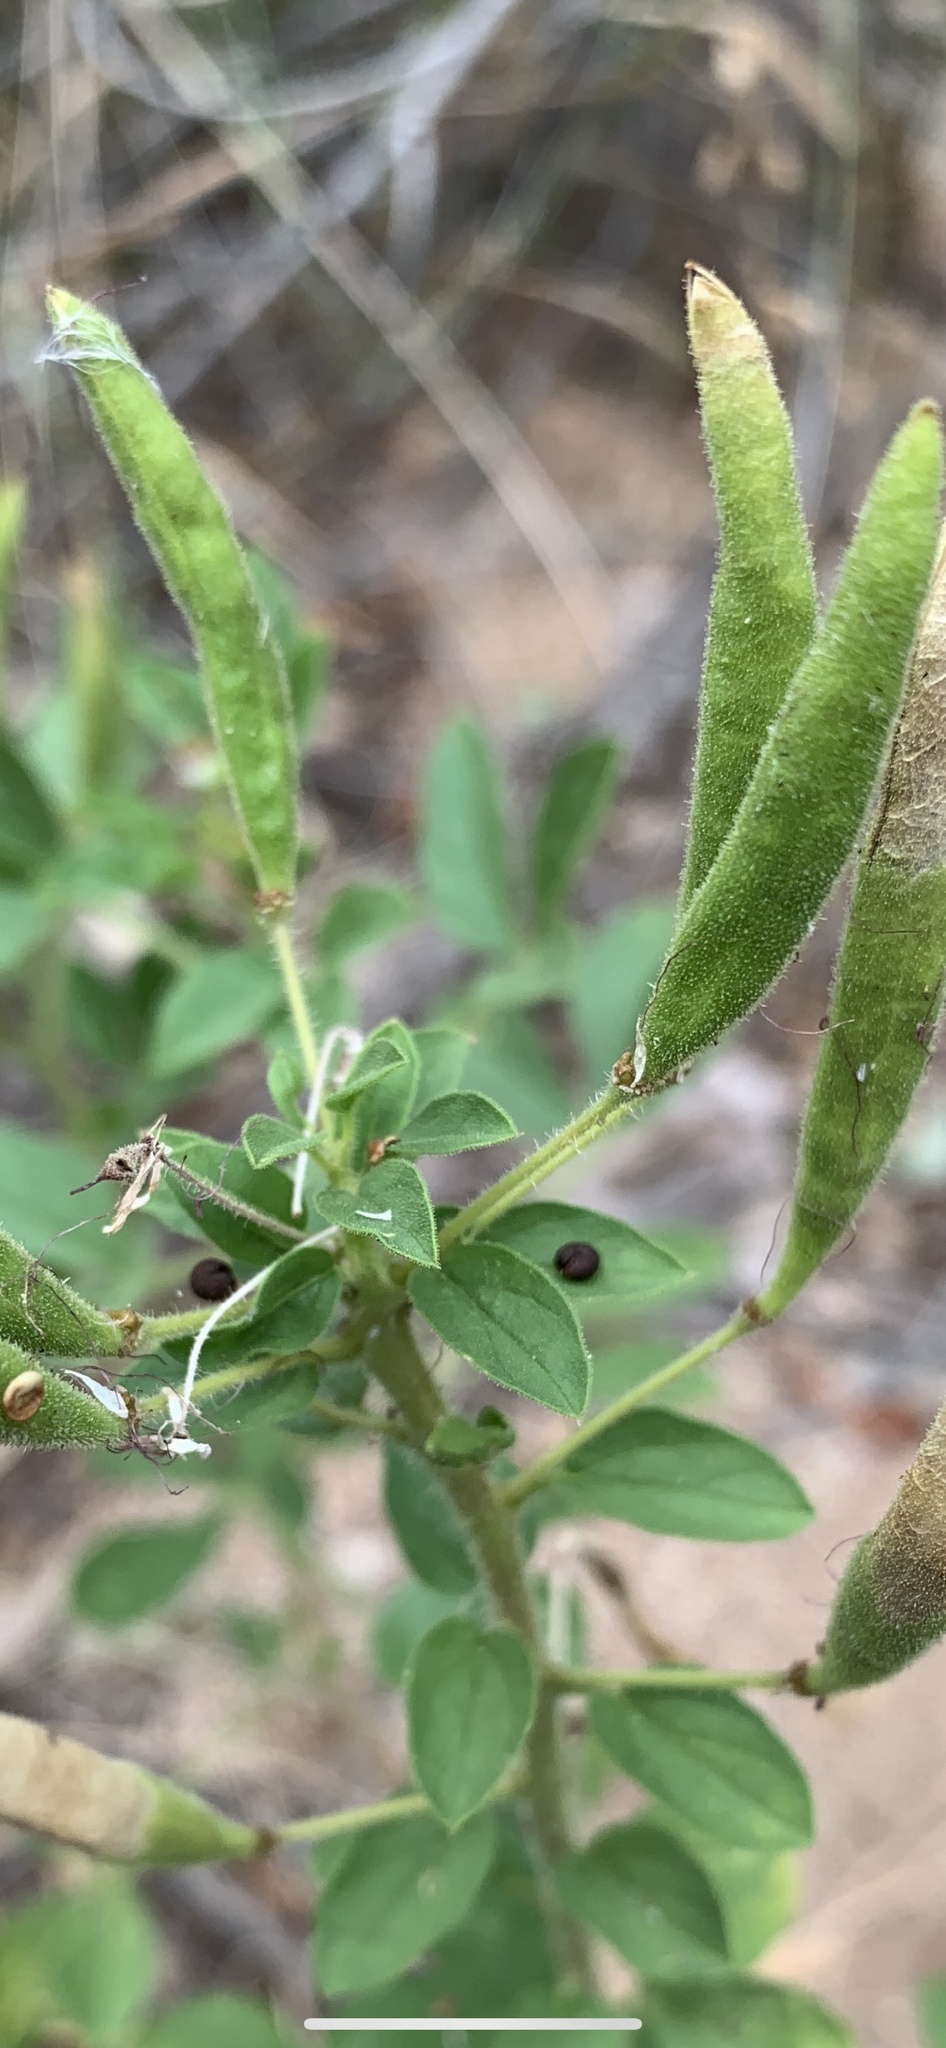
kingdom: Plantae
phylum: Tracheophyta
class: Magnoliopsida
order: Brassicales
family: Cleomaceae
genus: Polanisia
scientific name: Polanisia dodecandra
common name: Clammyweed
